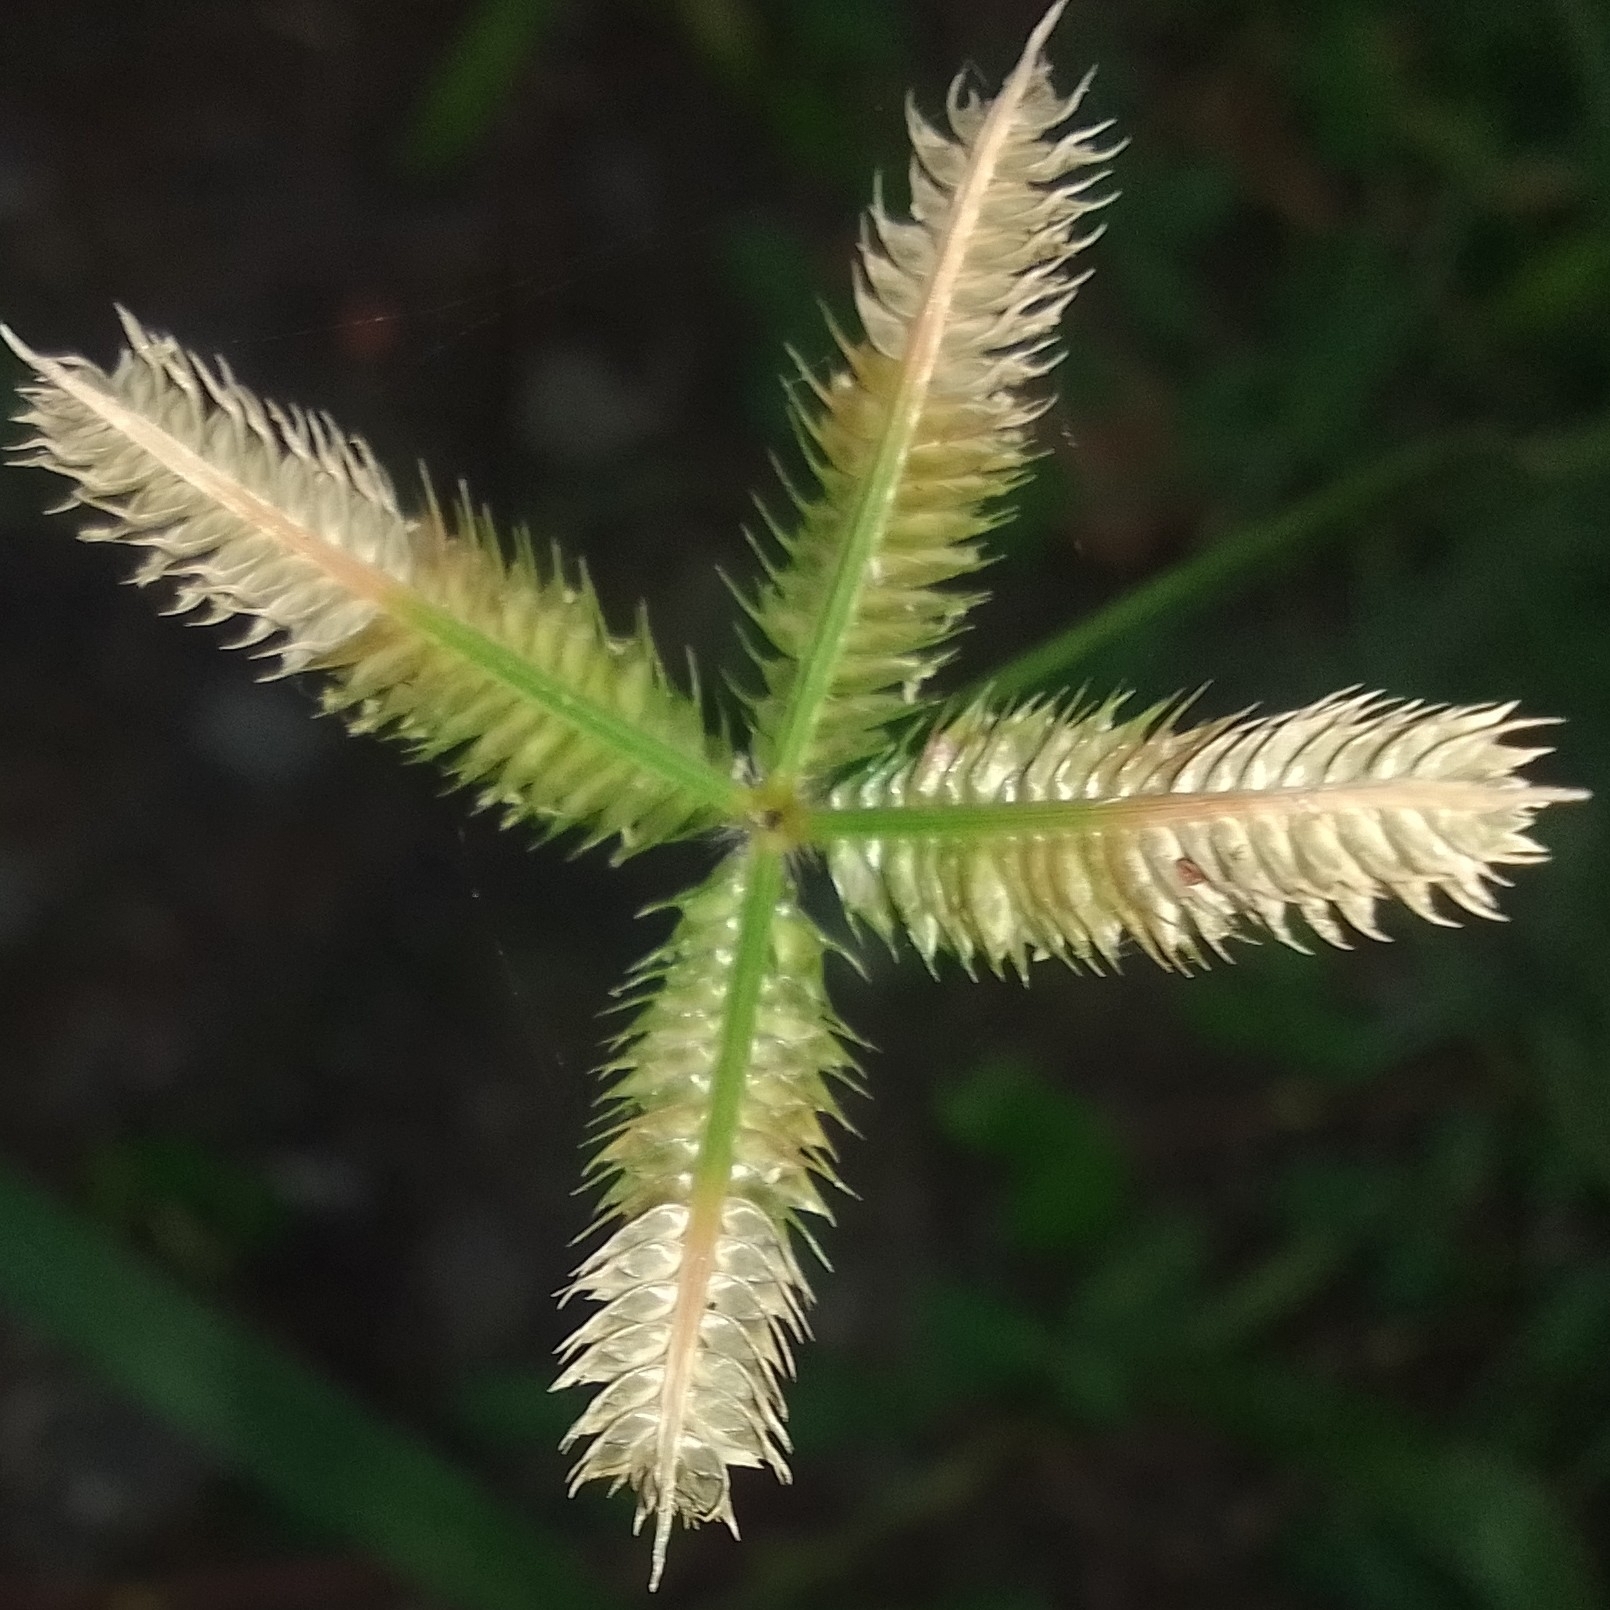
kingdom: Plantae
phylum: Tracheophyta
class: Liliopsida
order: Poales
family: Poaceae
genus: Dactyloctenium
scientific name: Dactyloctenium aegyptium
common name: Egyptian grass
